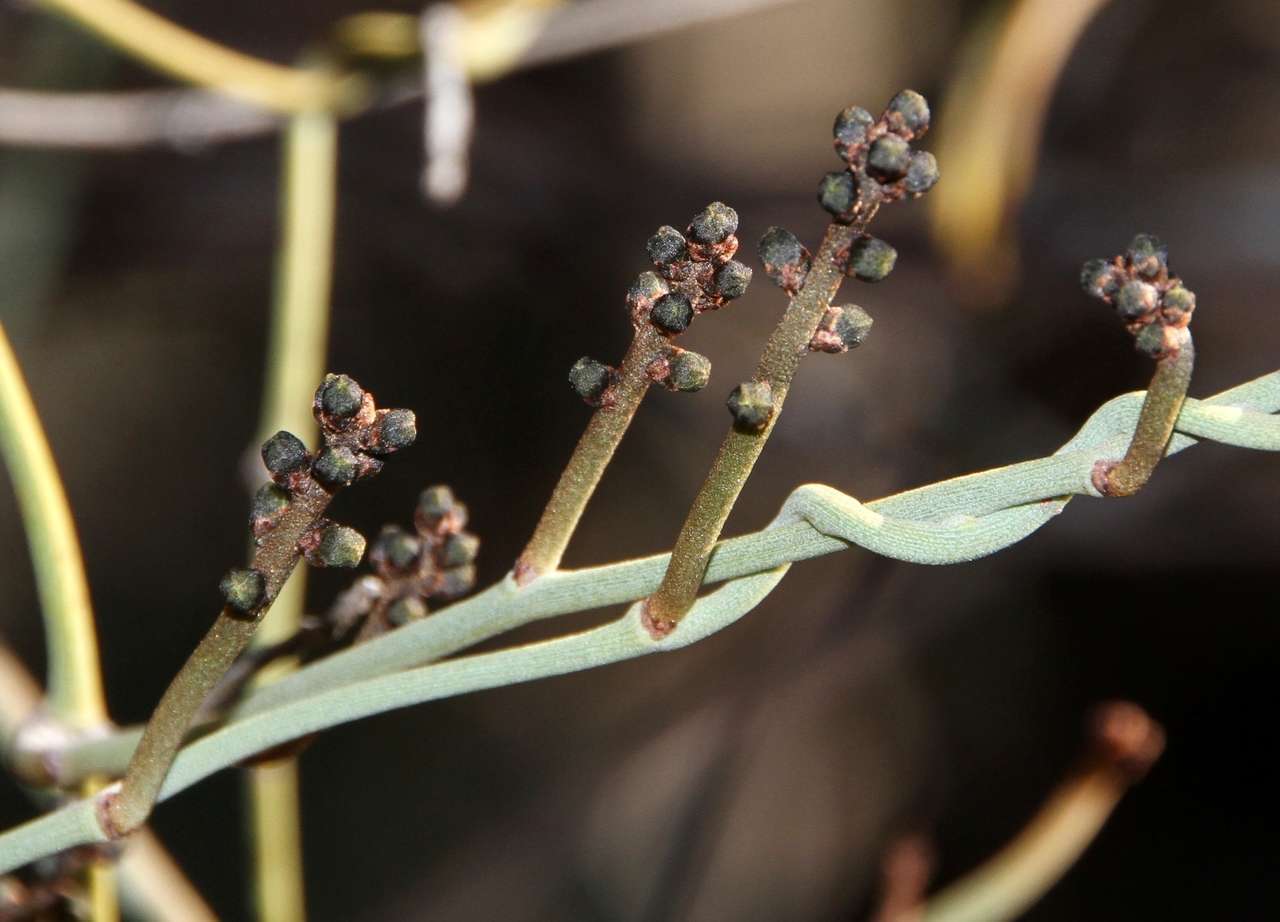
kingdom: Plantae
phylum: Tracheophyta
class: Magnoliopsida
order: Laurales
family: Lauraceae
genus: Cassytha
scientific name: Cassytha melantha
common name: Mallee stranglevine
